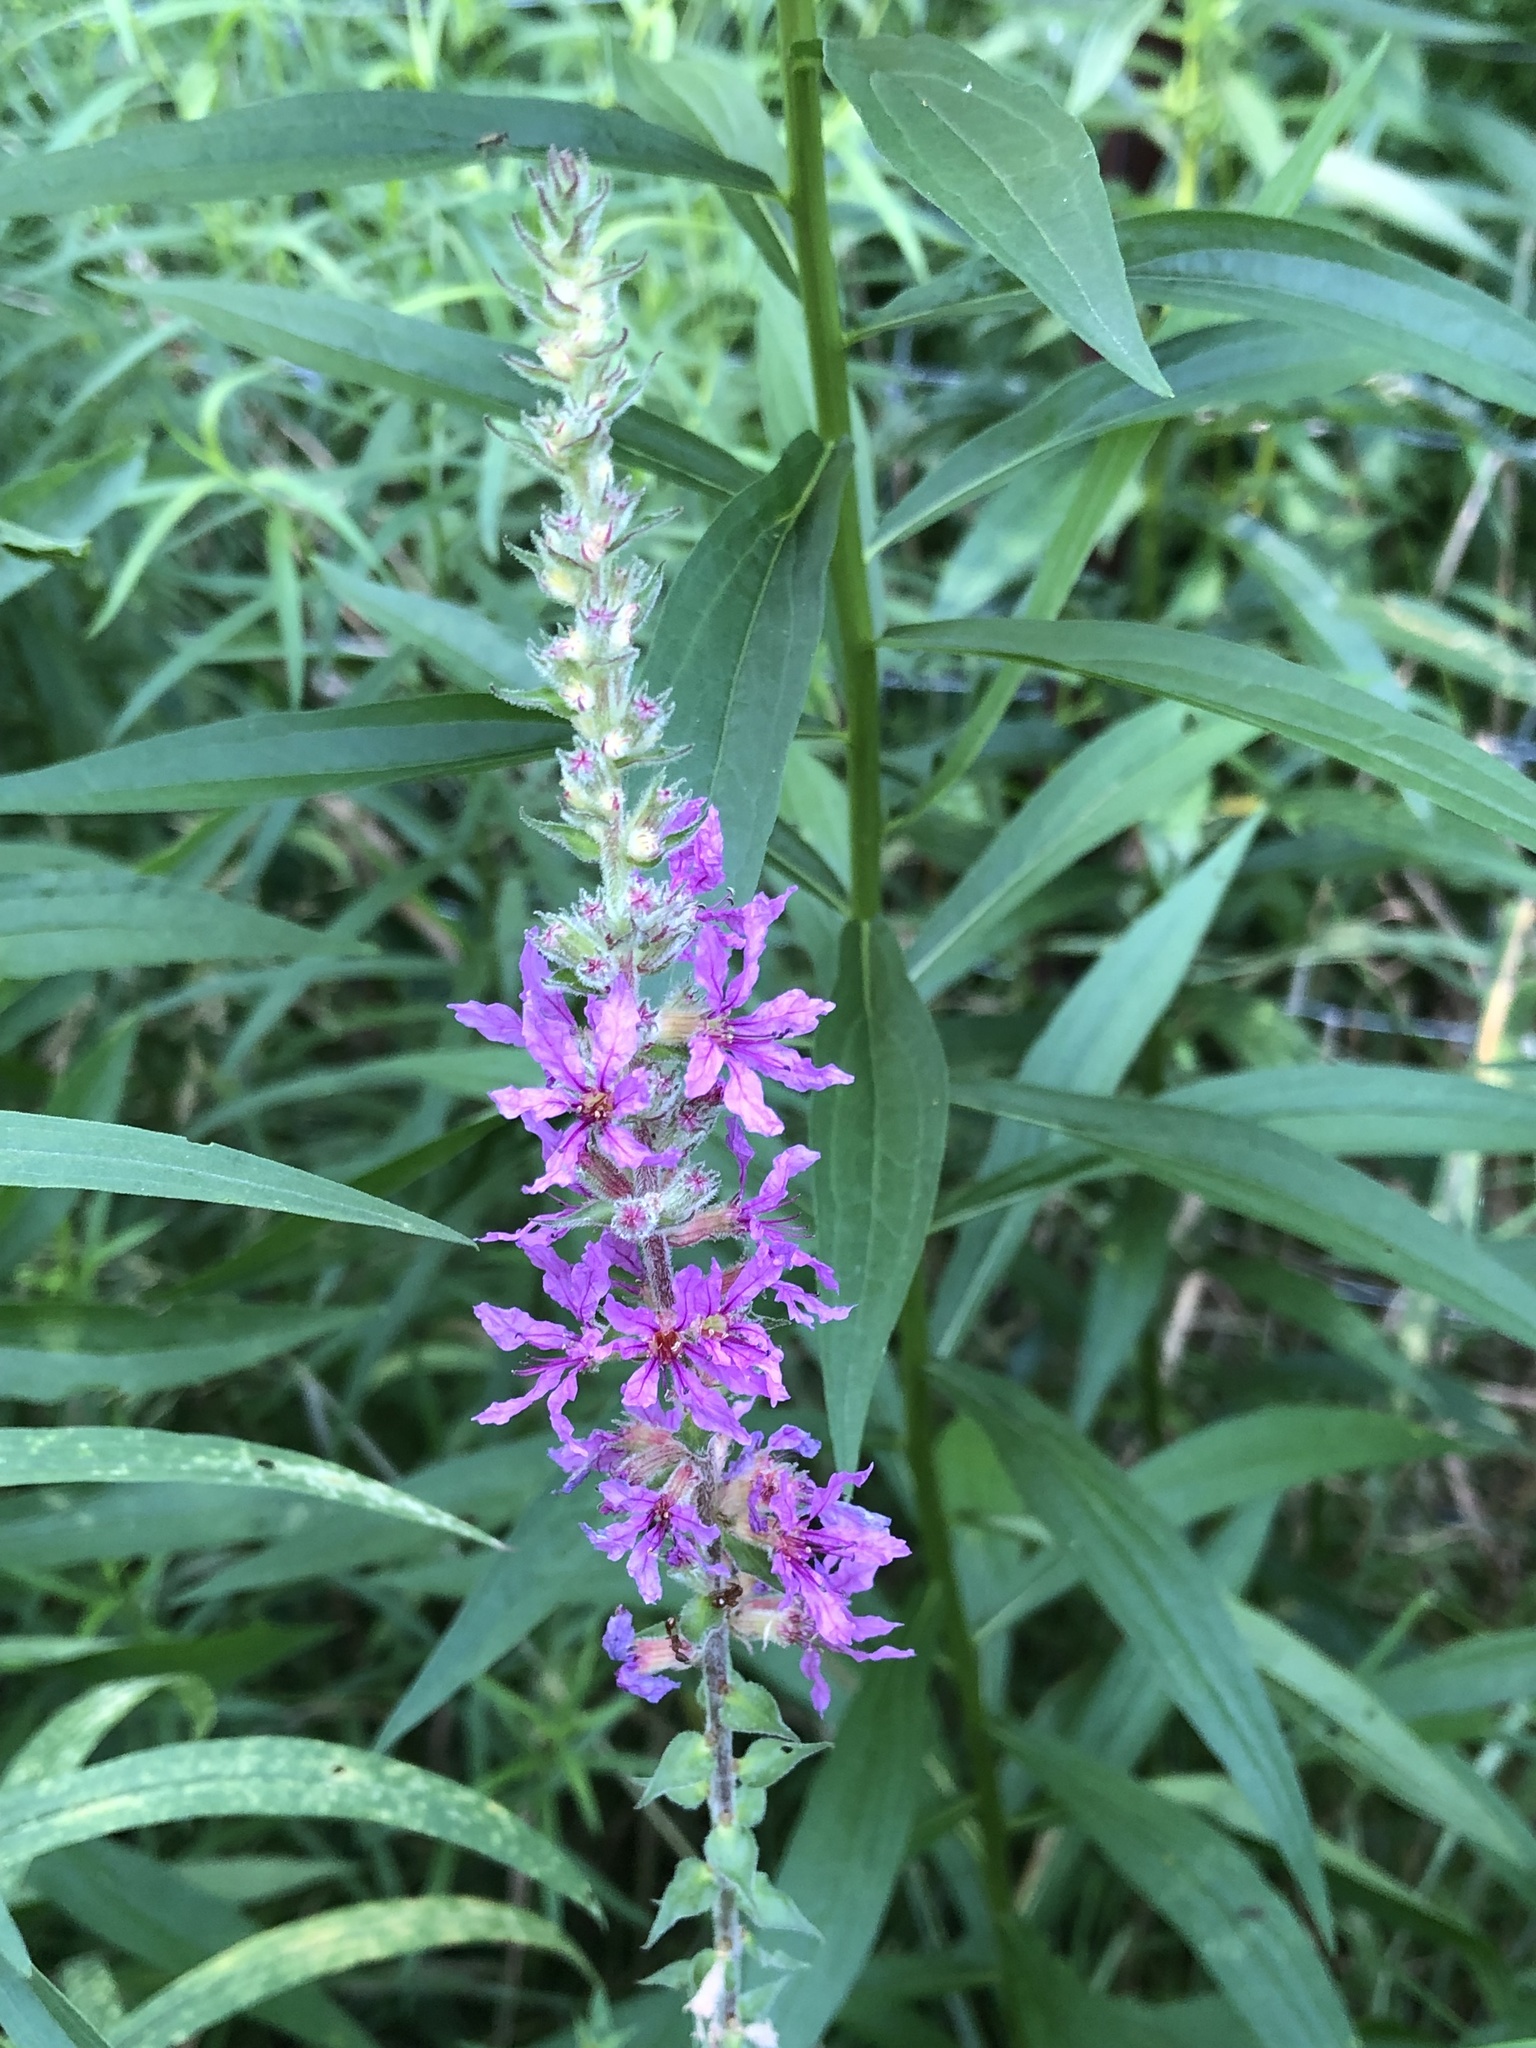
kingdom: Plantae
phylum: Tracheophyta
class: Magnoliopsida
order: Myrtales
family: Lythraceae
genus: Lythrum
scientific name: Lythrum salicaria
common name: Purple loosestrife
